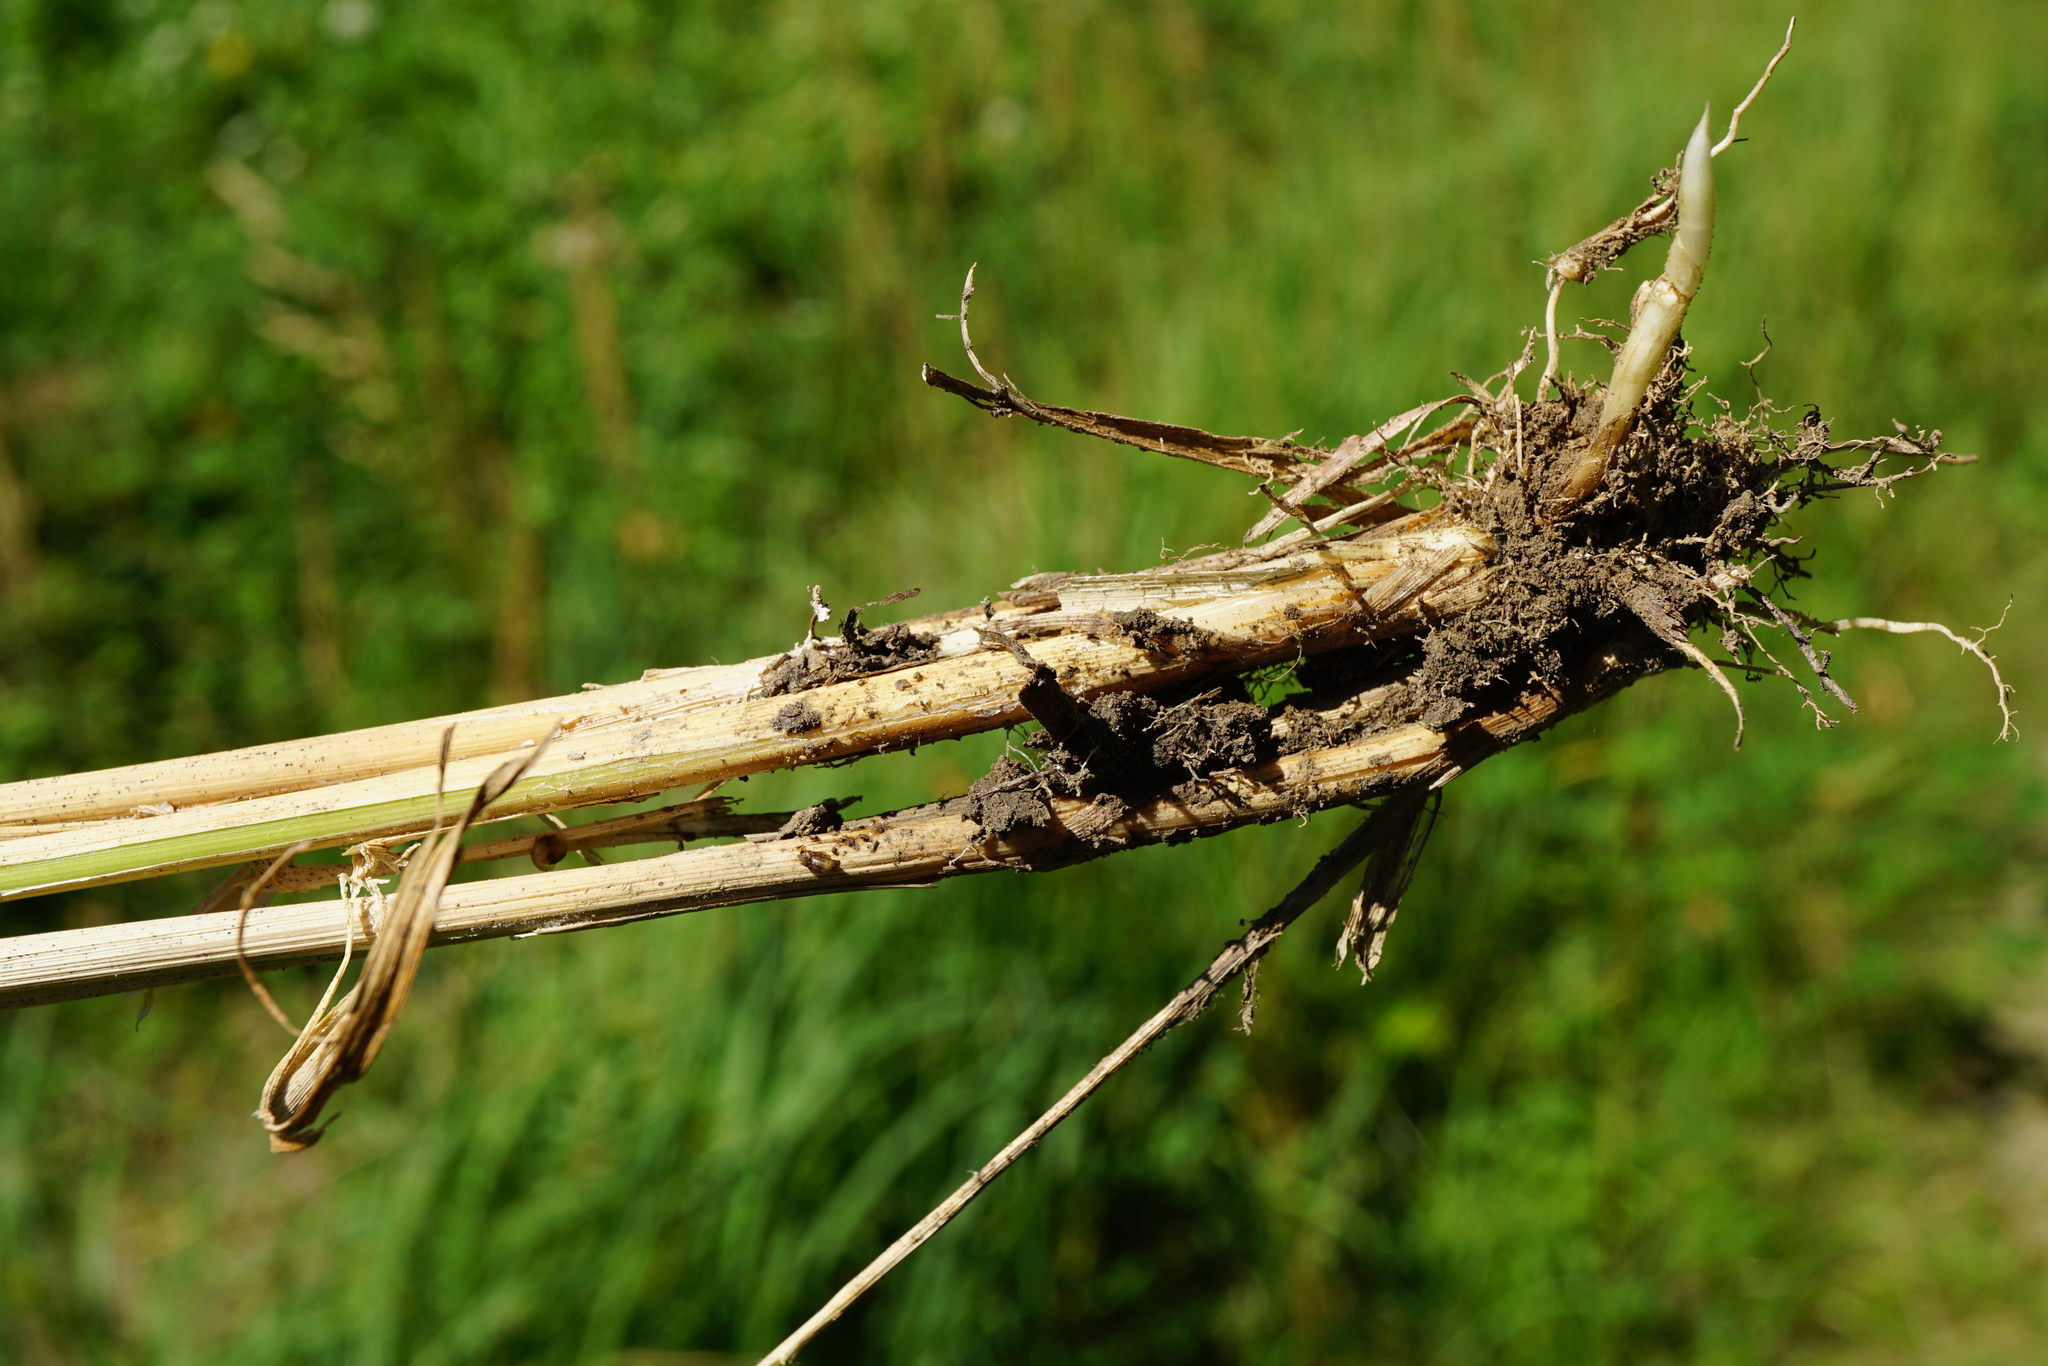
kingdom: Plantae
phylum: Tracheophyta
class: Liliopsida
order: Poales
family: Poaceae
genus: Calamagrostis
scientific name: Calamagrostis epigejos
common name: Wood small-reed
